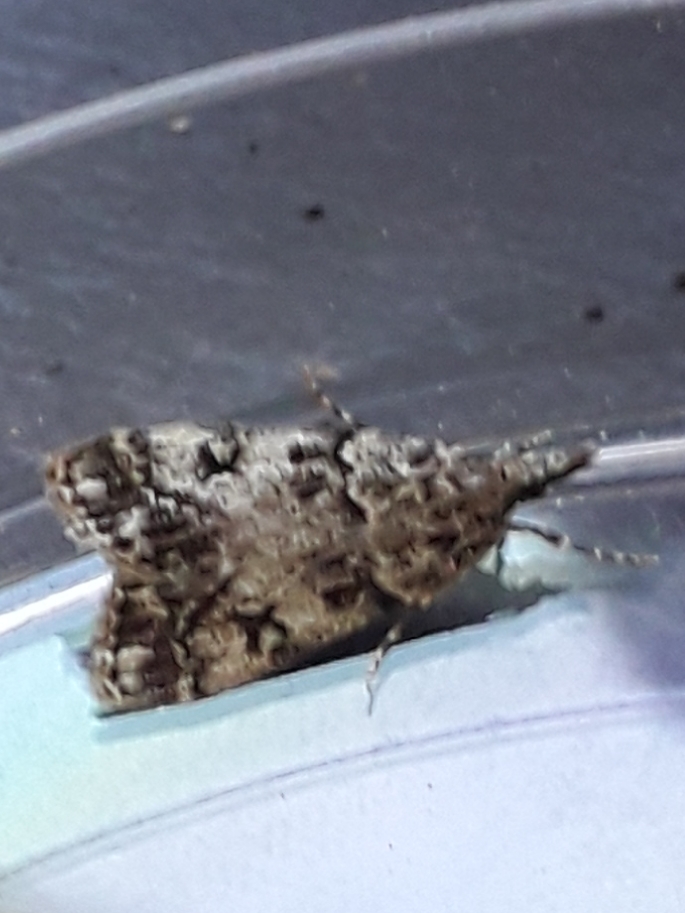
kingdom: Animalia
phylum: Arthropoda
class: Insecta
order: Lepidoptera
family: Crambidae
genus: Eudonia
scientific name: Eudonia lacustrata
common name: Little grey
